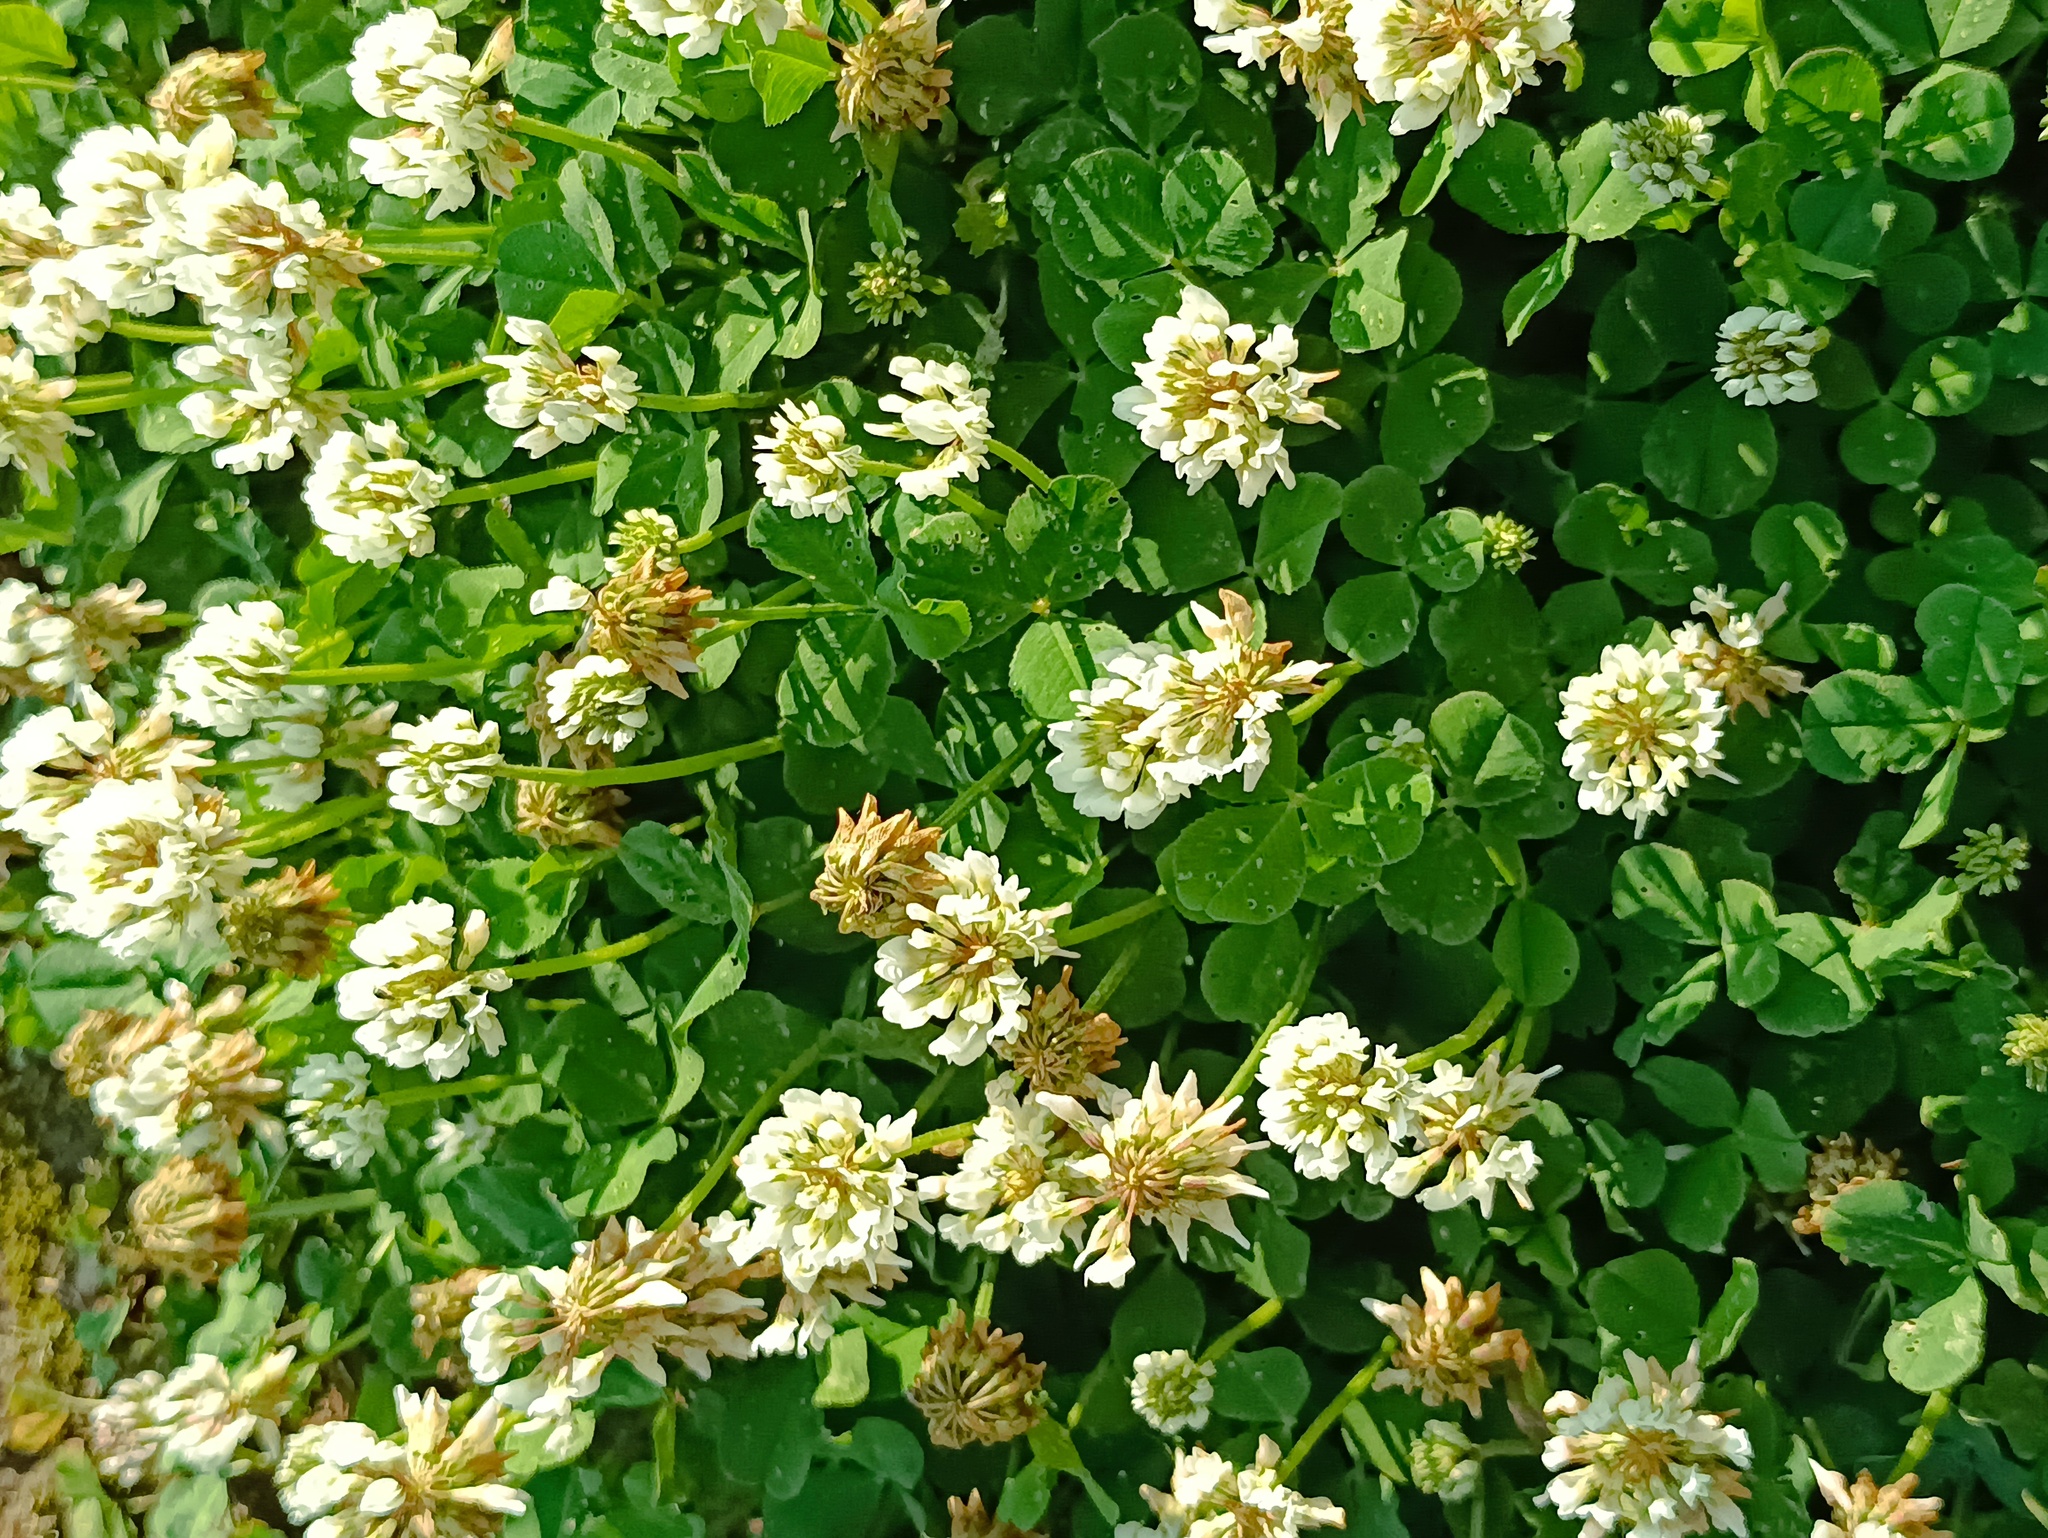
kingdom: Plantae
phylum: Tracheophyta
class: Magnoliopsida
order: Fabales
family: Fabaceae
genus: Trifolium
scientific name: Trifolium repens
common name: White clover
